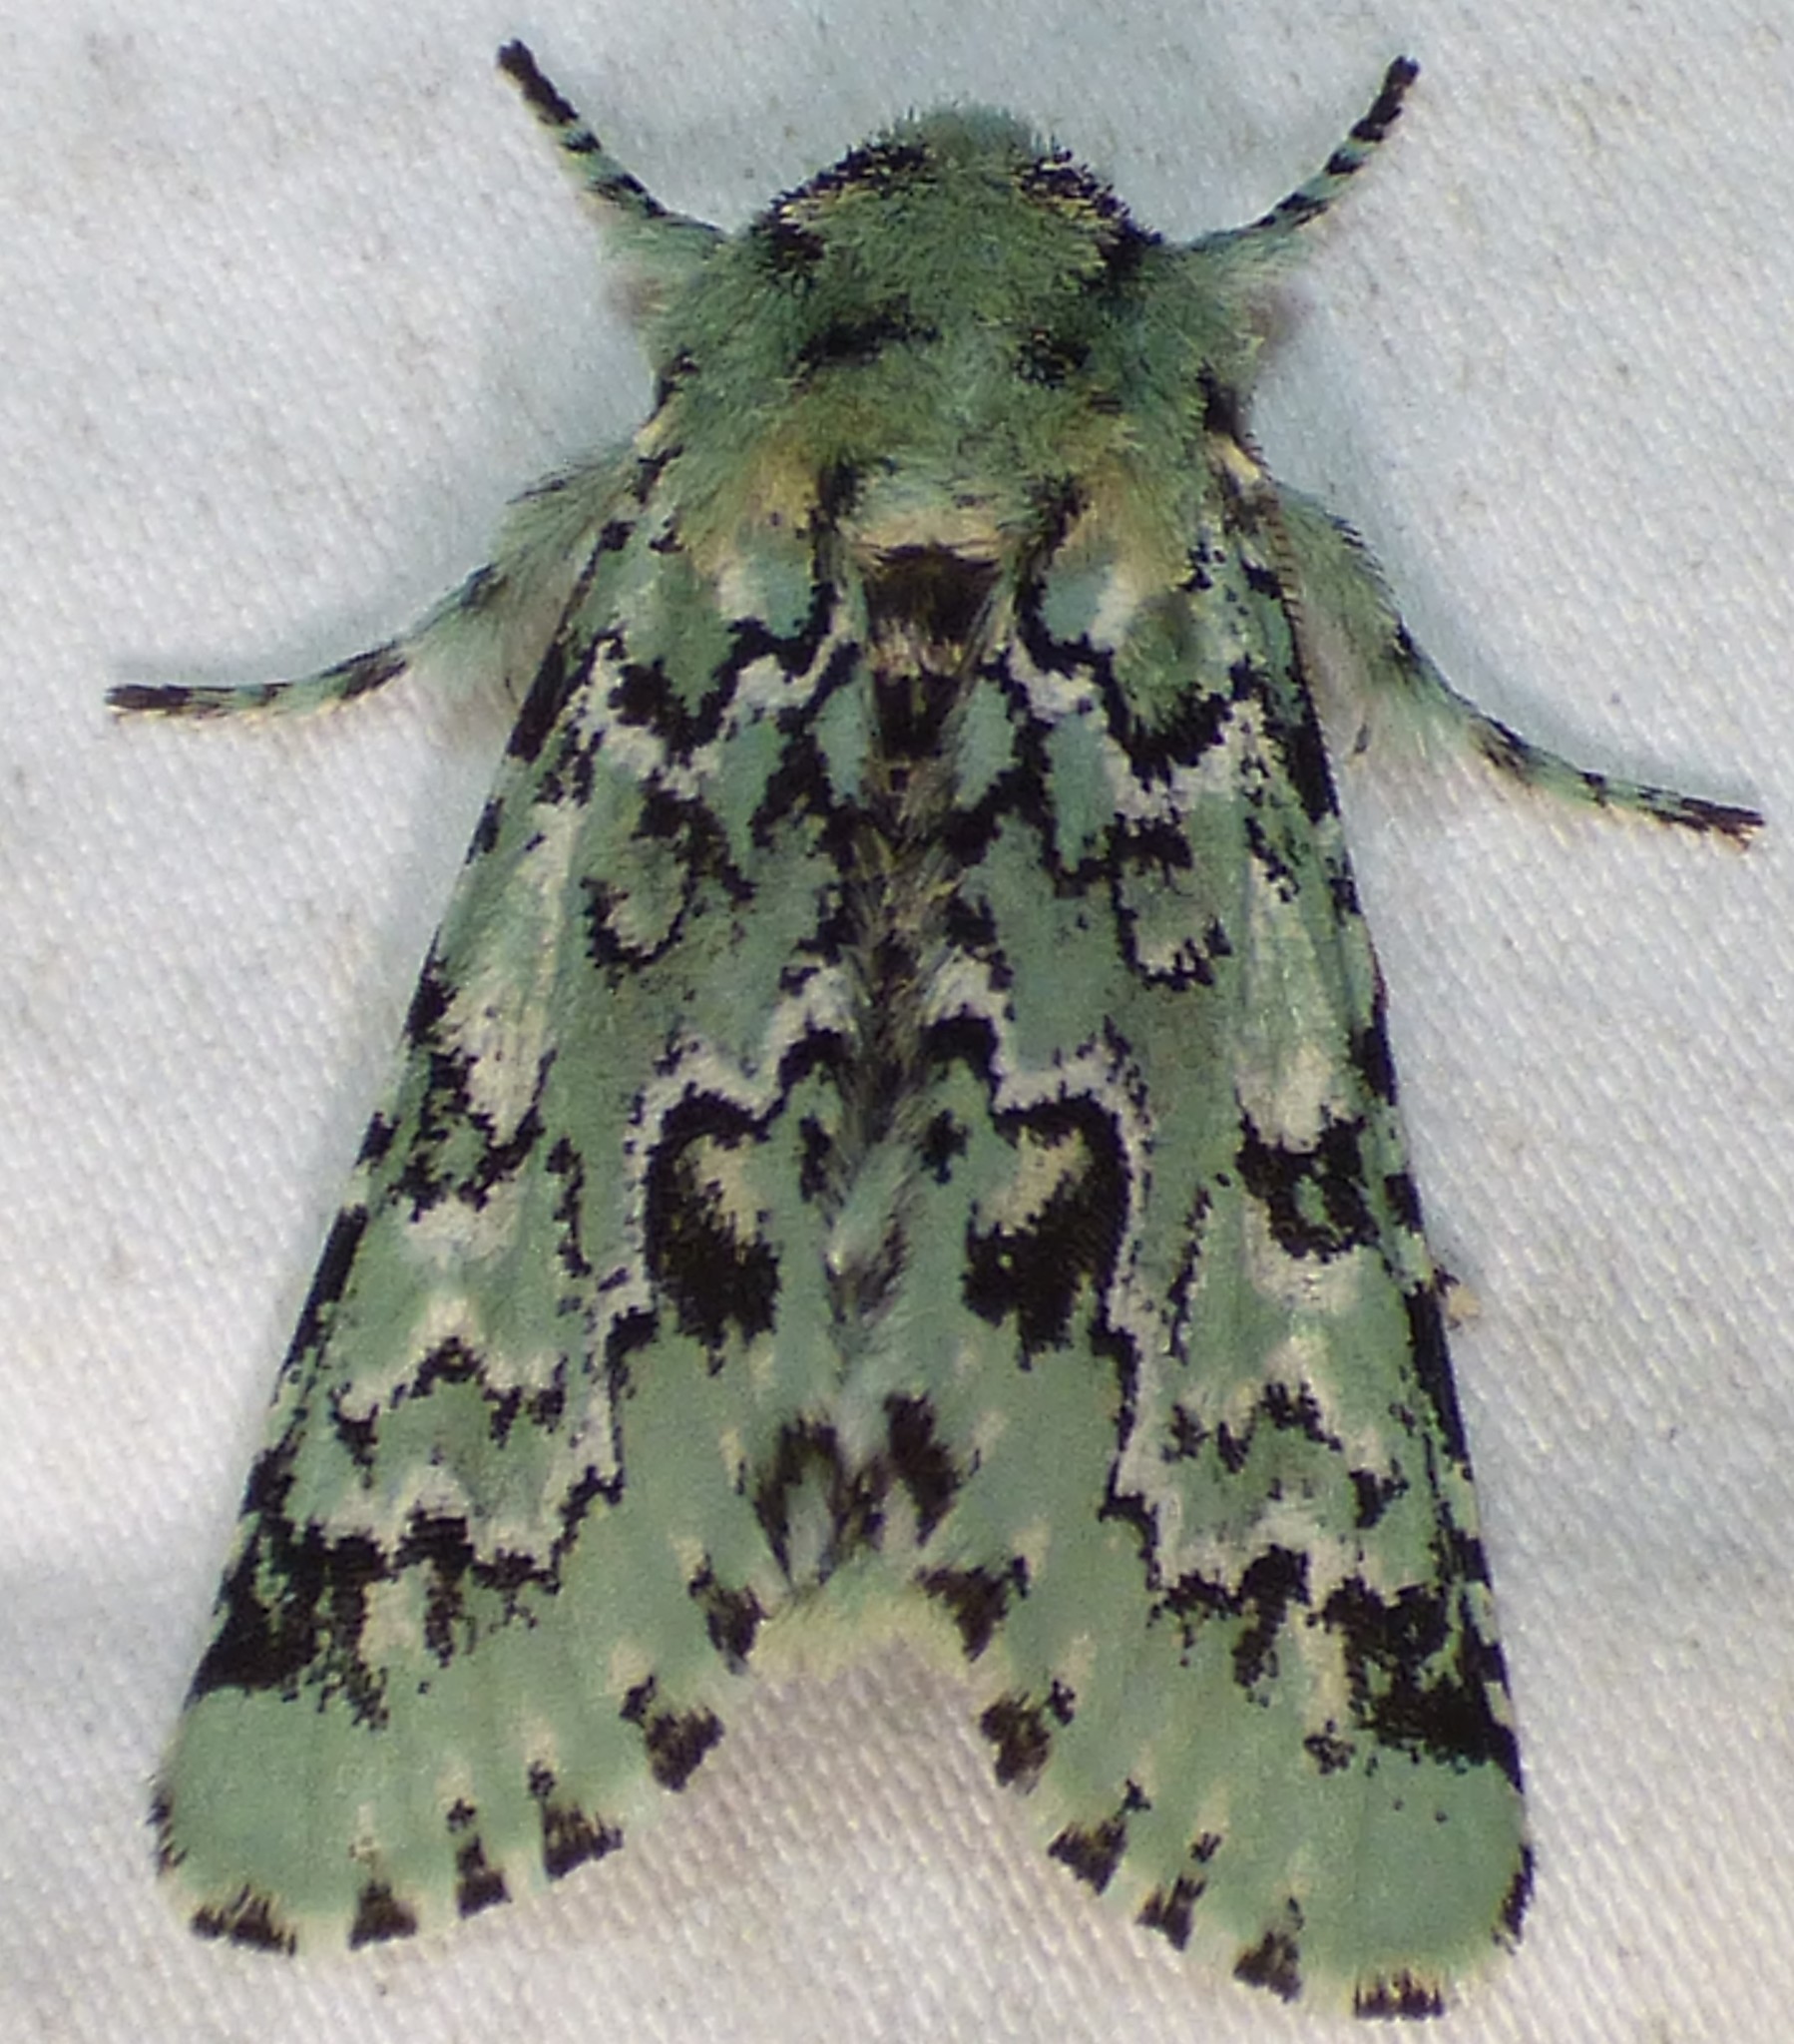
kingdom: Animalia
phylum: Arthropoda
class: Insecta
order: Lepidoptera
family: Noctuidae
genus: Feralia
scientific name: Feralia major
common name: Major sallow
